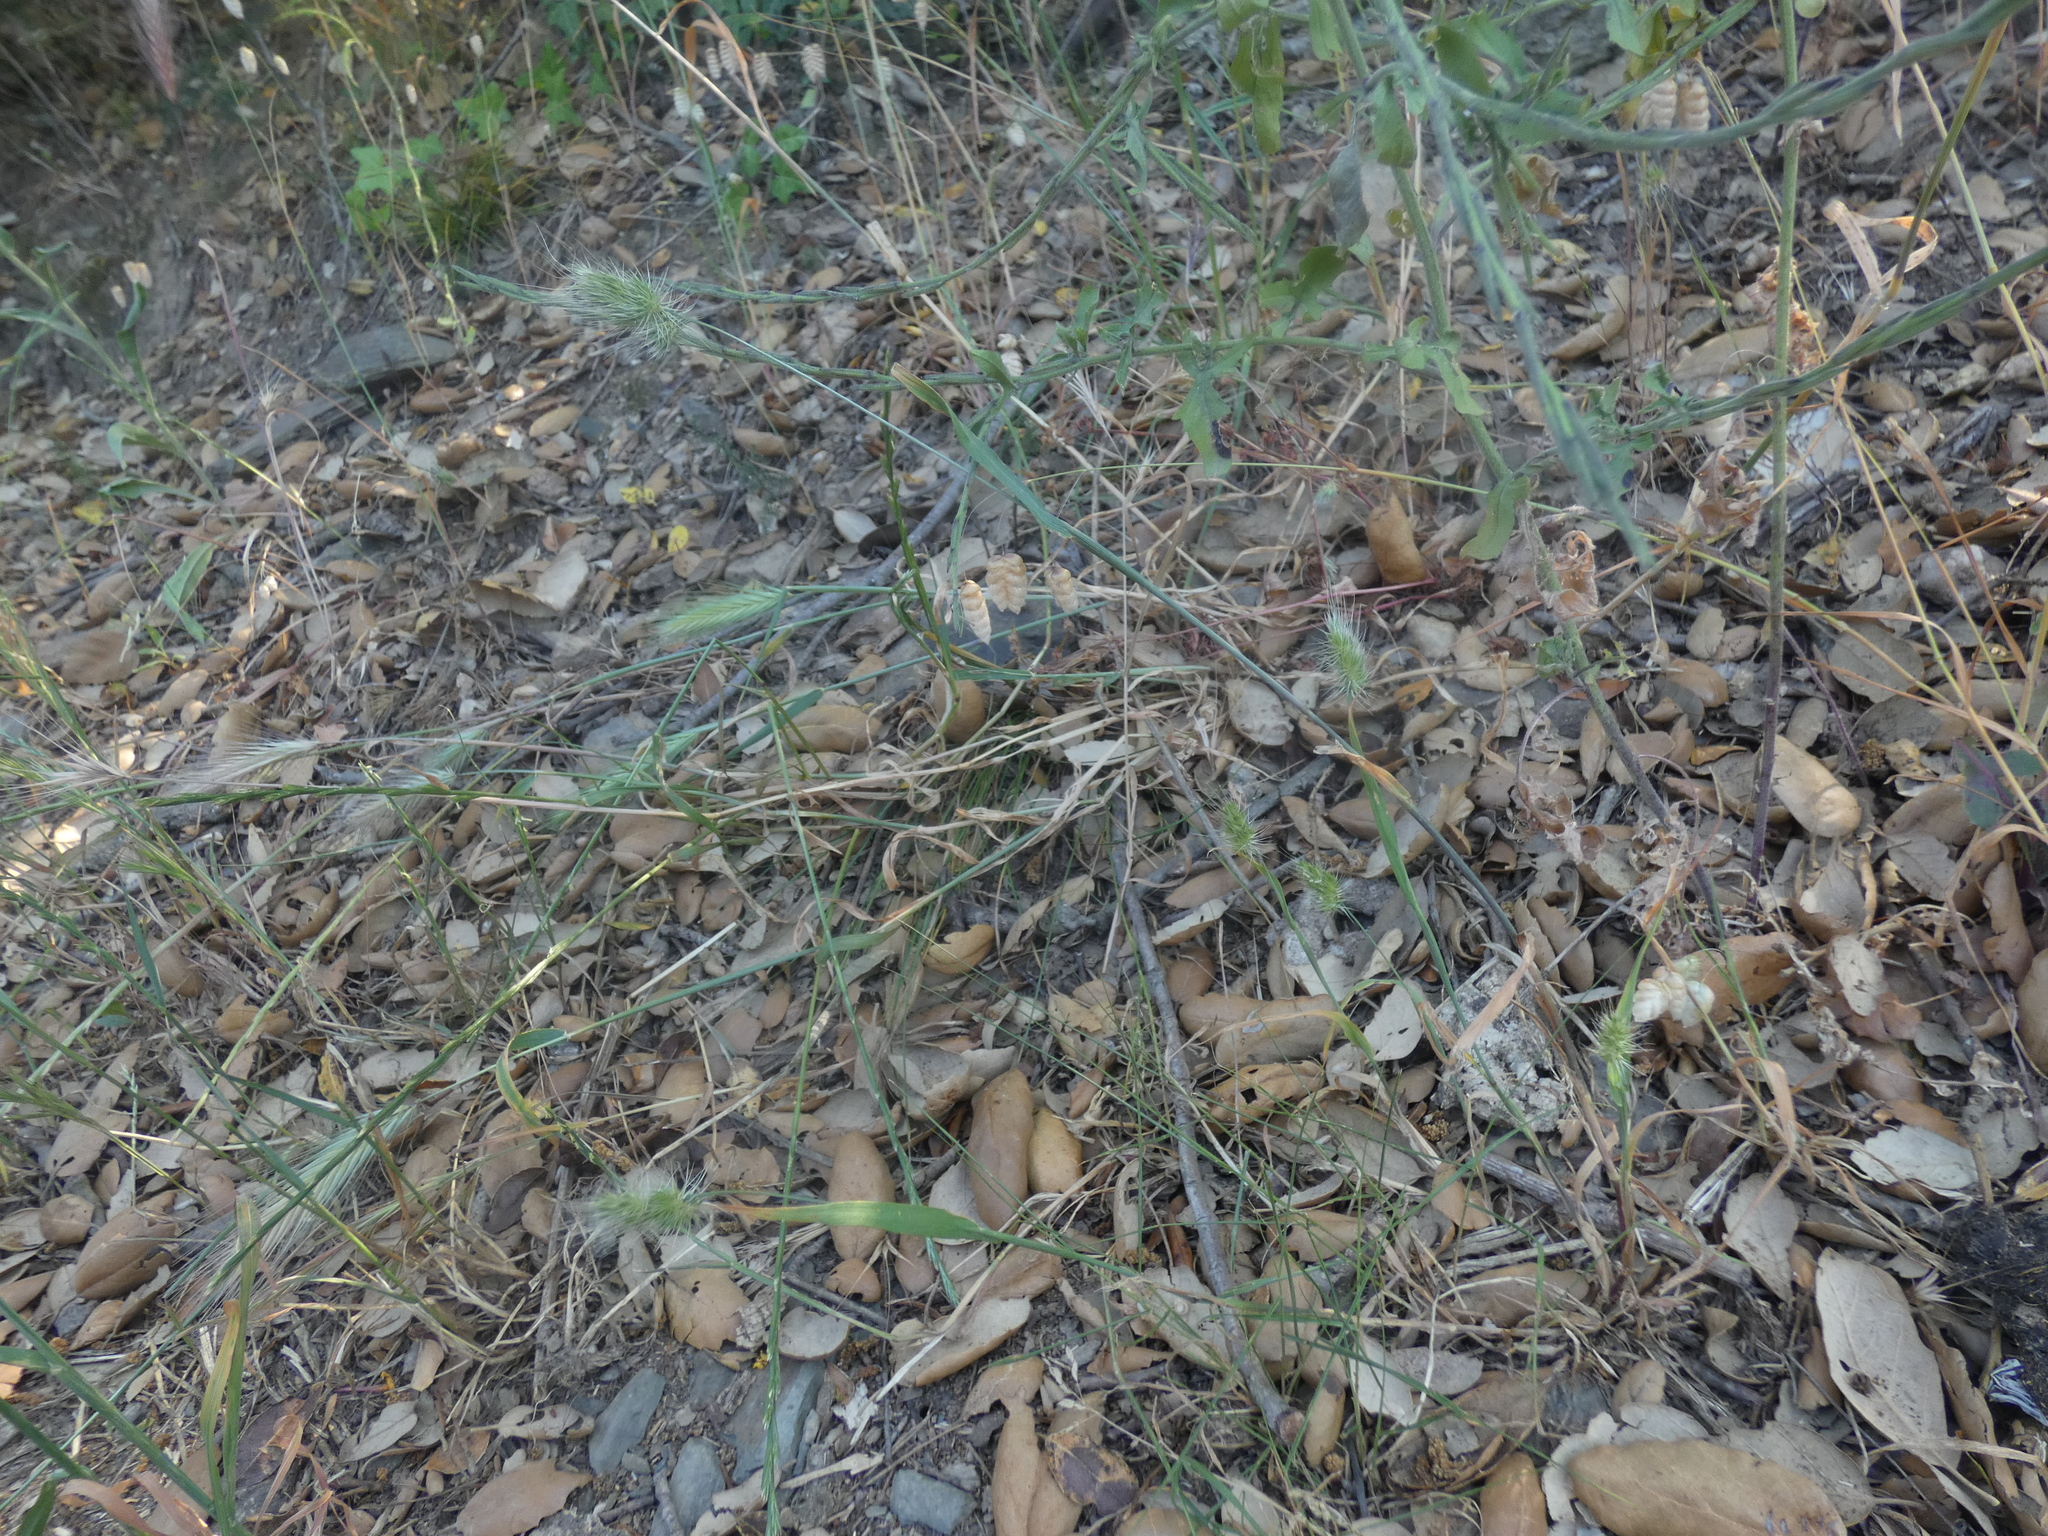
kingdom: Plantae
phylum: Tracheophyta
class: Liliopsida
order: Poales
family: Poaceae
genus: Cynosurus
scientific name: Cynosurus echinatus
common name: Rough dog's-tail
